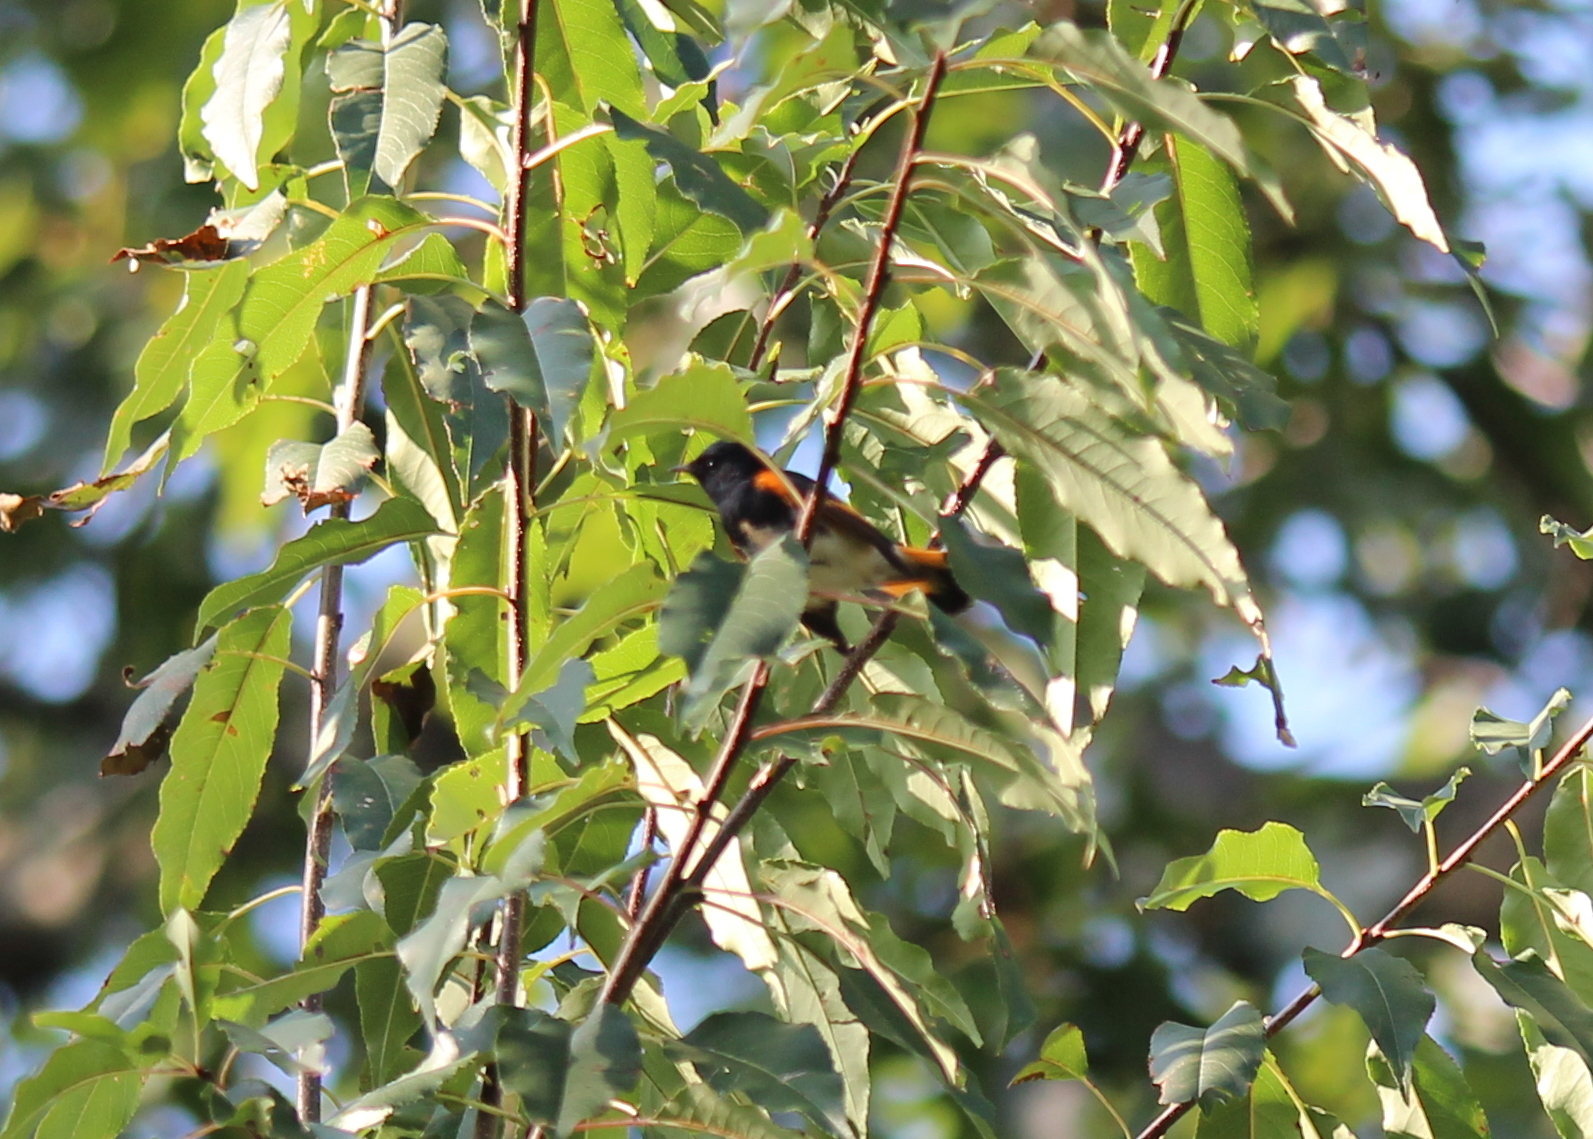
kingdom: Animalia
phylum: Chordata
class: Aves
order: Passeriformes
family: Parulidae
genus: Setophaga
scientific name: Setophaga ruticilla
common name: American redstart
